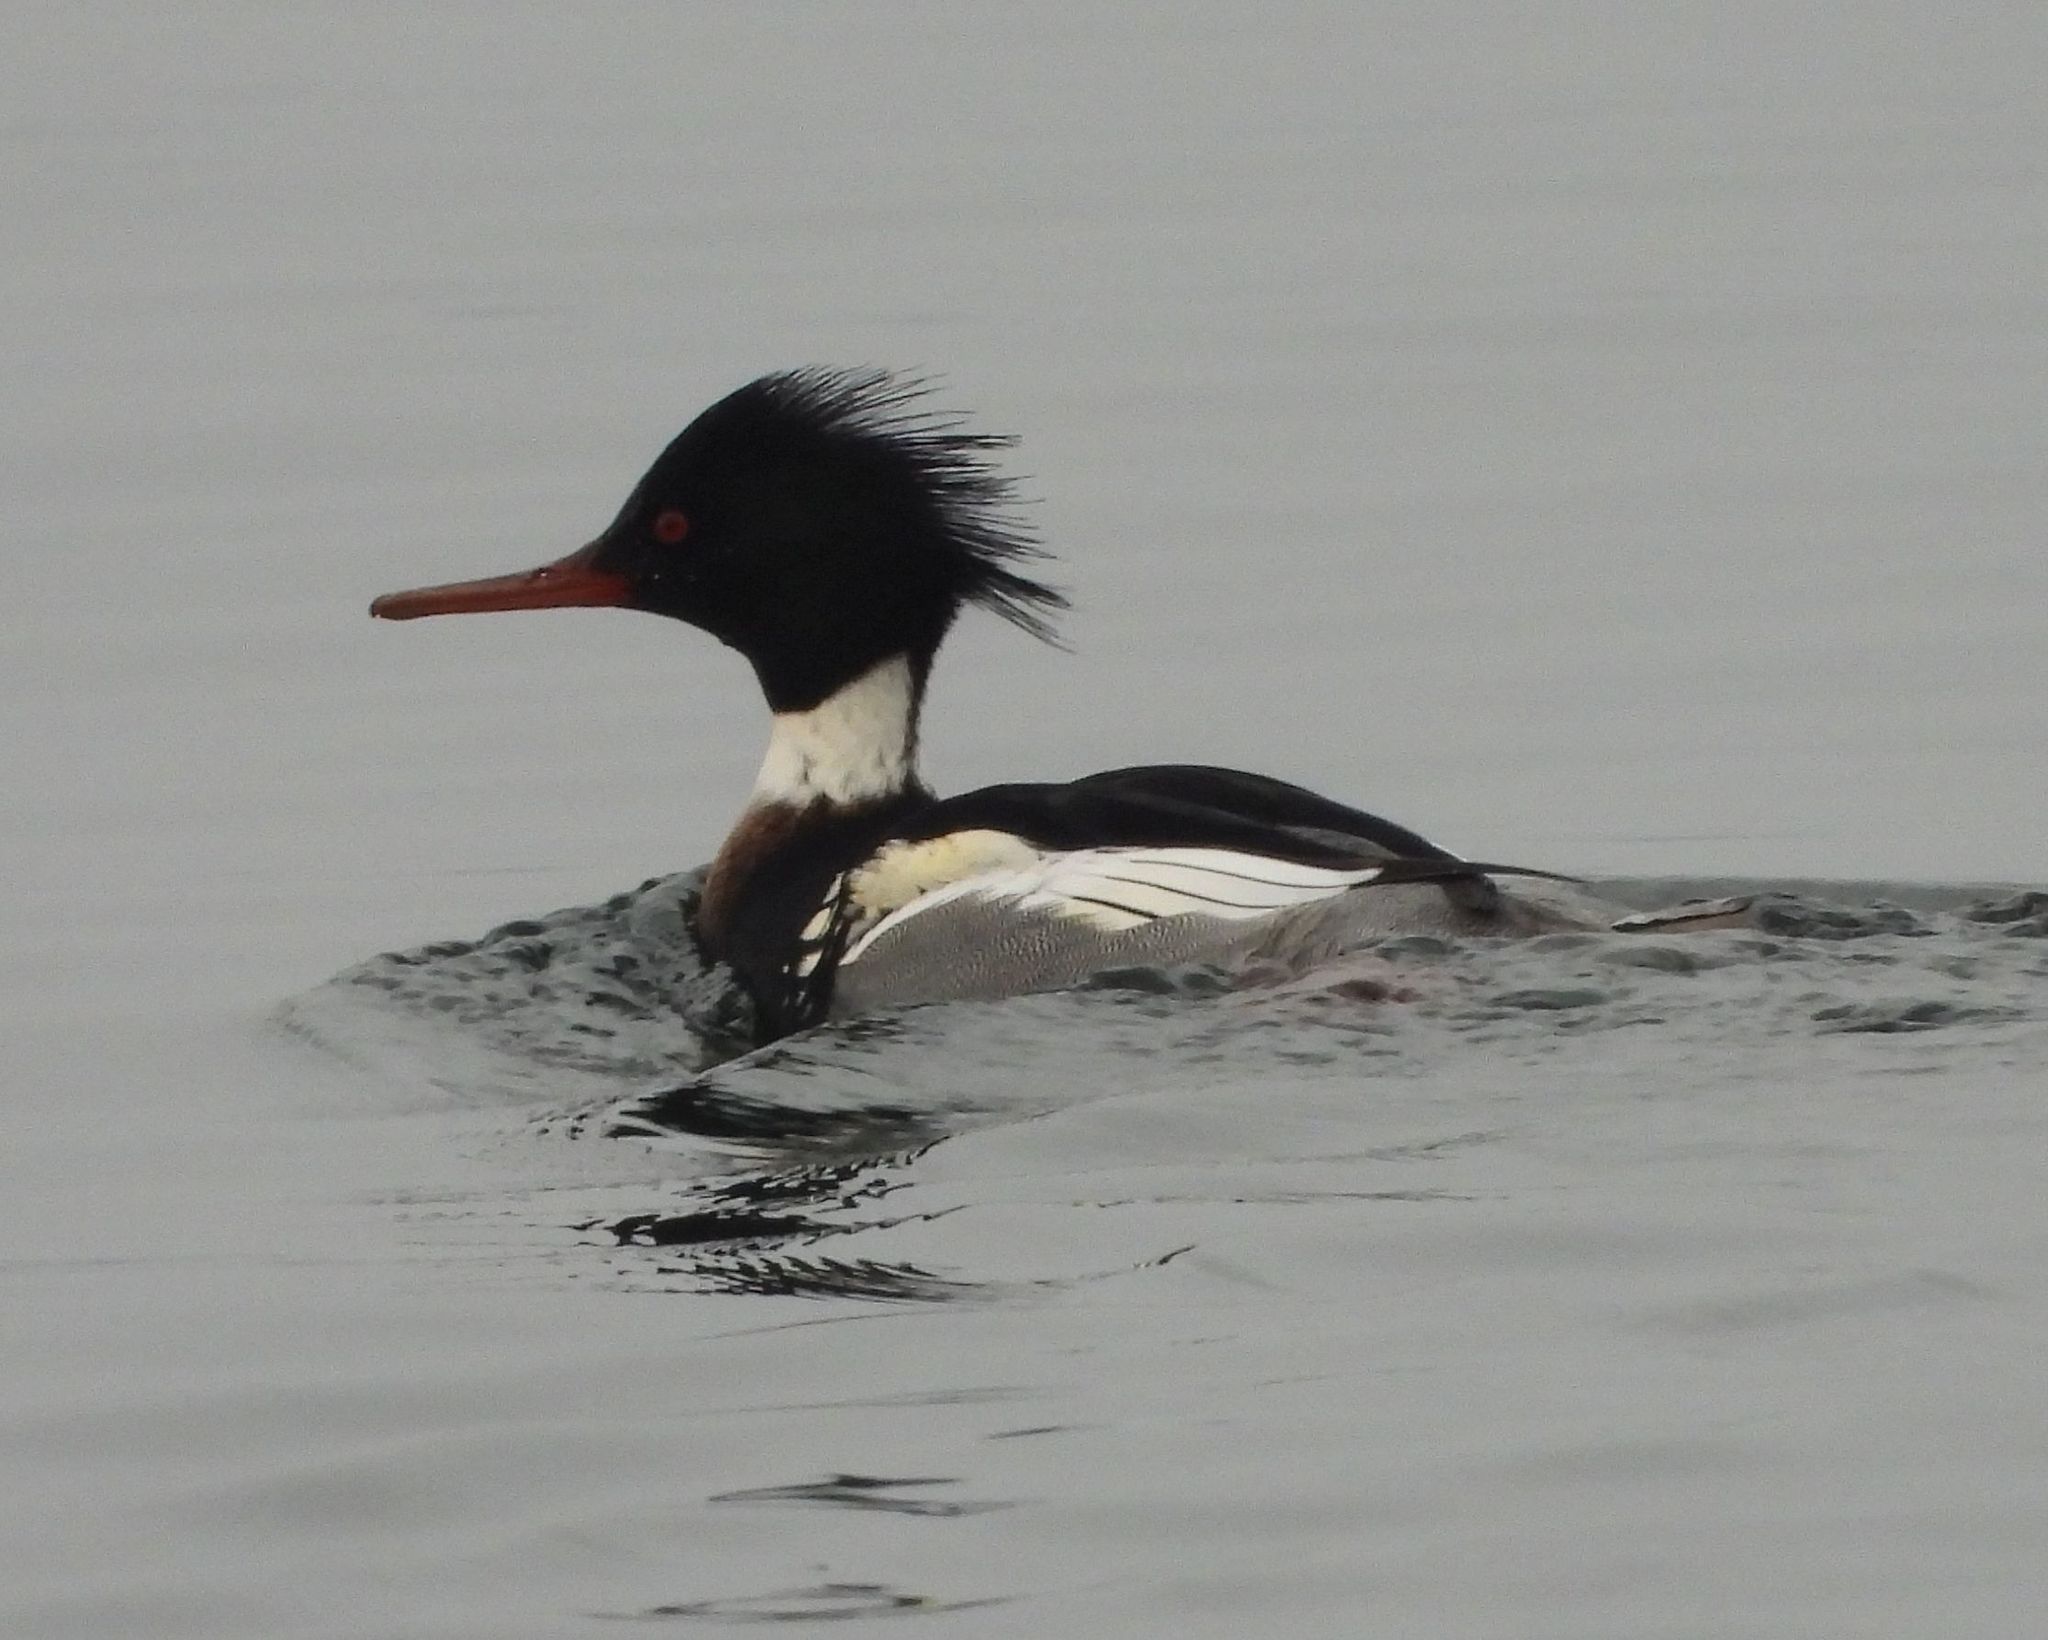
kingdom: Animalia
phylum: Chordata
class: Aves
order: Anseriformes
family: Anatidae
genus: Mergus
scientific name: Mergus serrator
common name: Red-breasted merganser
